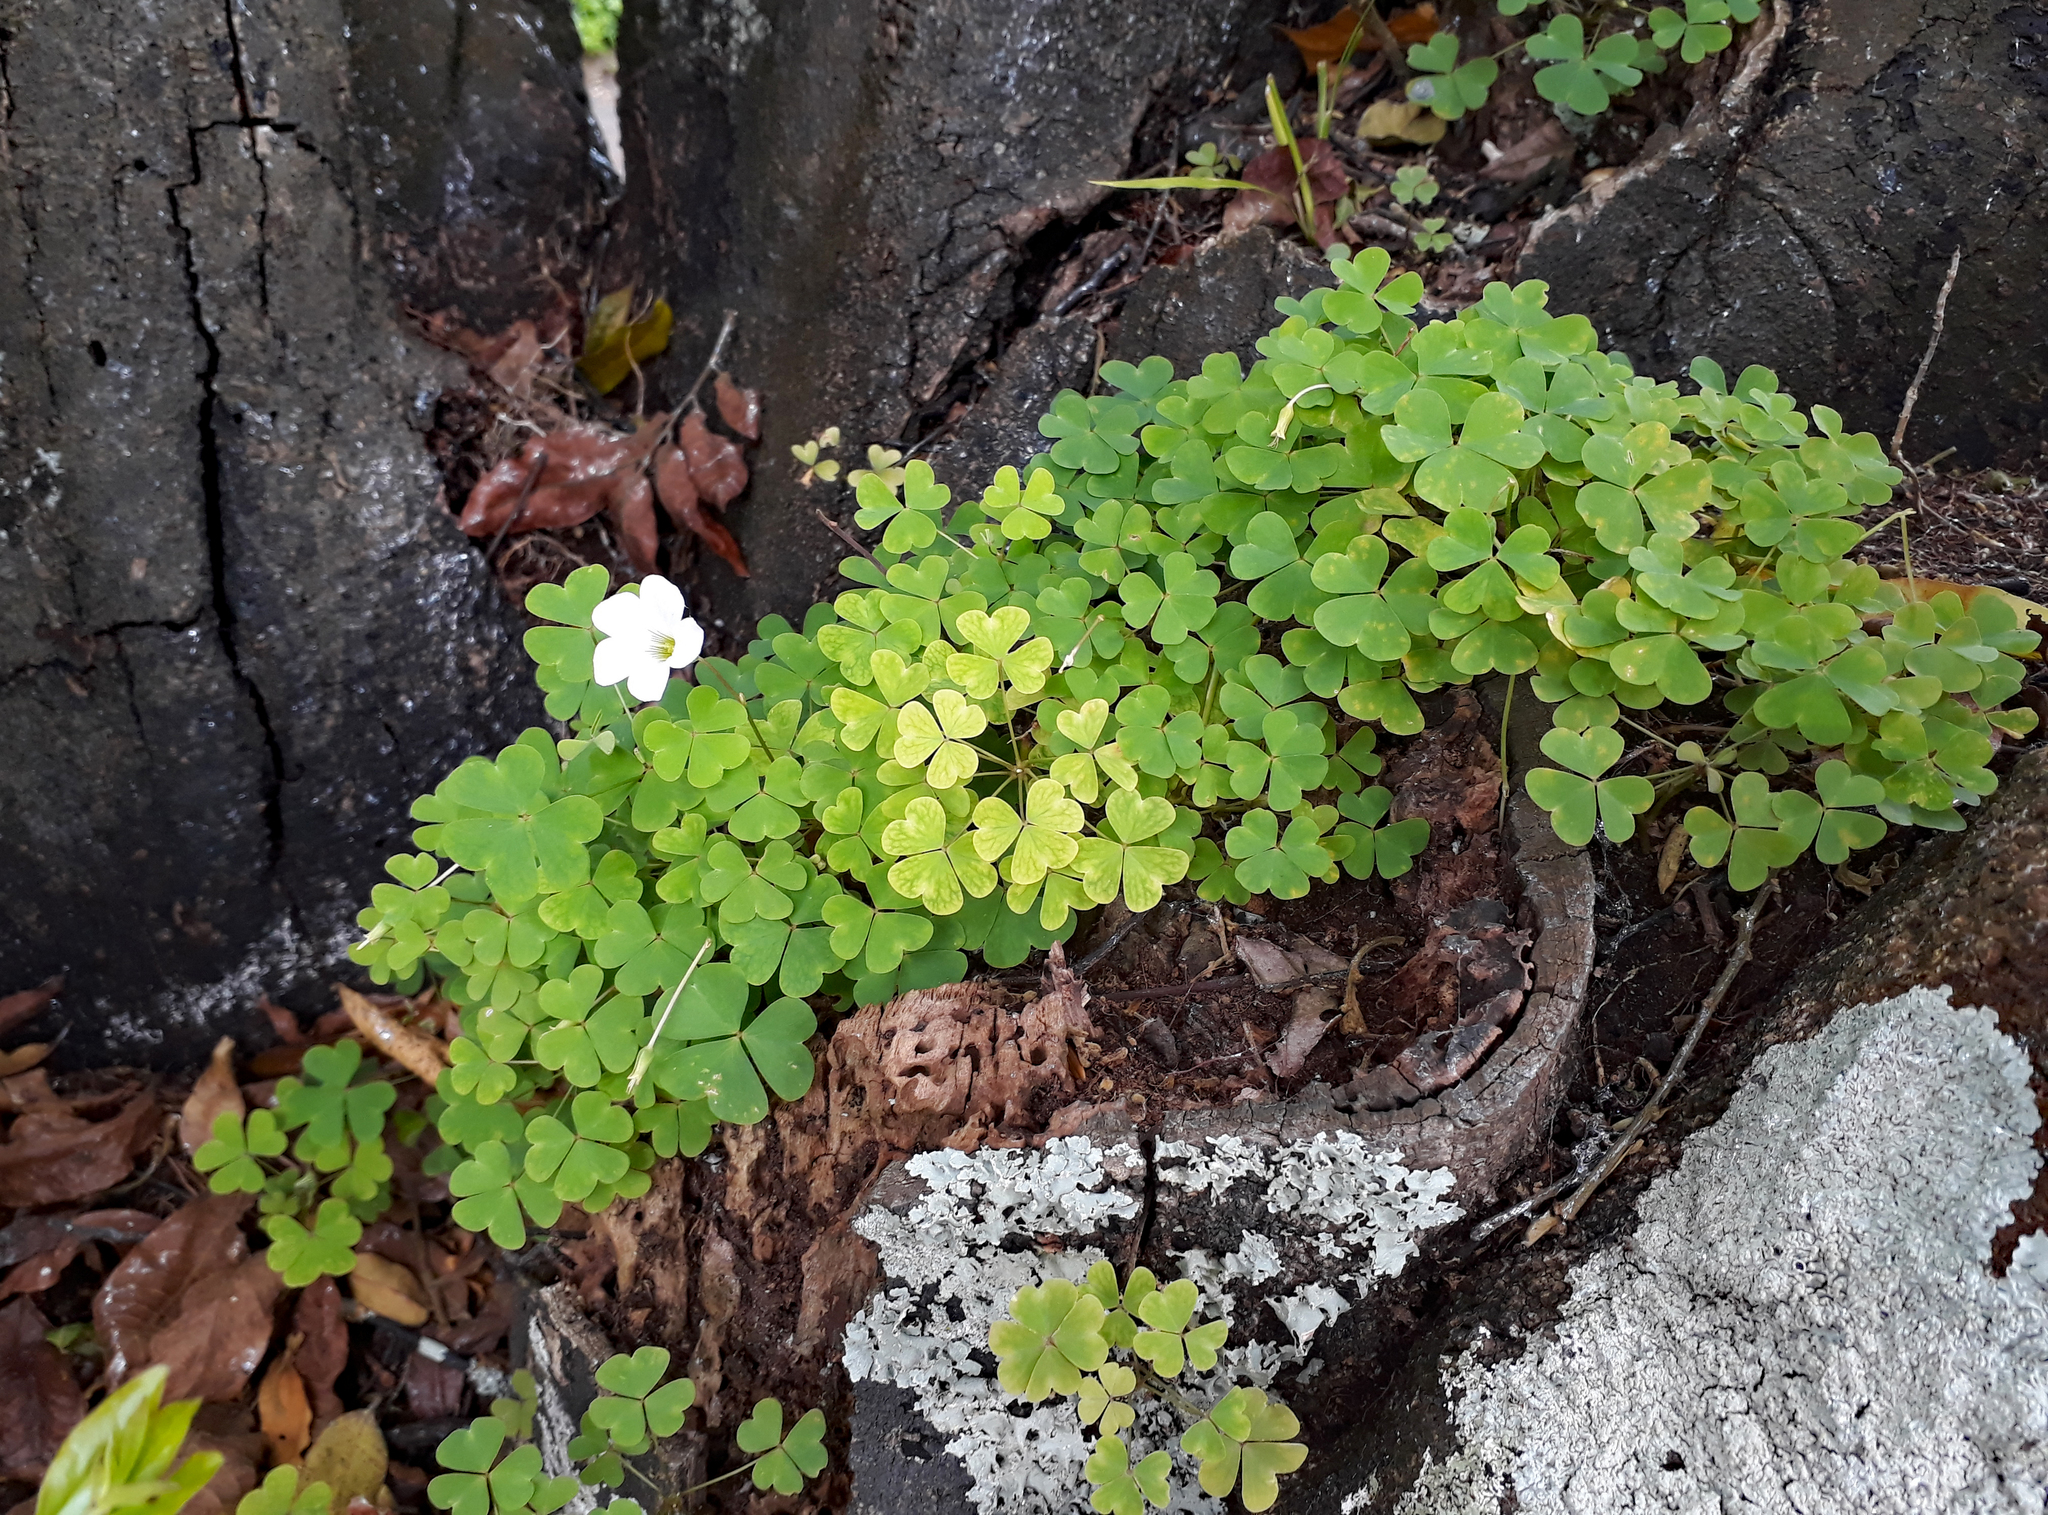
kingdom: Plantae
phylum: Tracheophyta
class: Magnoliopsida
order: Oxalidales
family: Oxalidaceae
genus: Oxalis
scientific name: Oxalis incarnata
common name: Pale pink-sorrel
